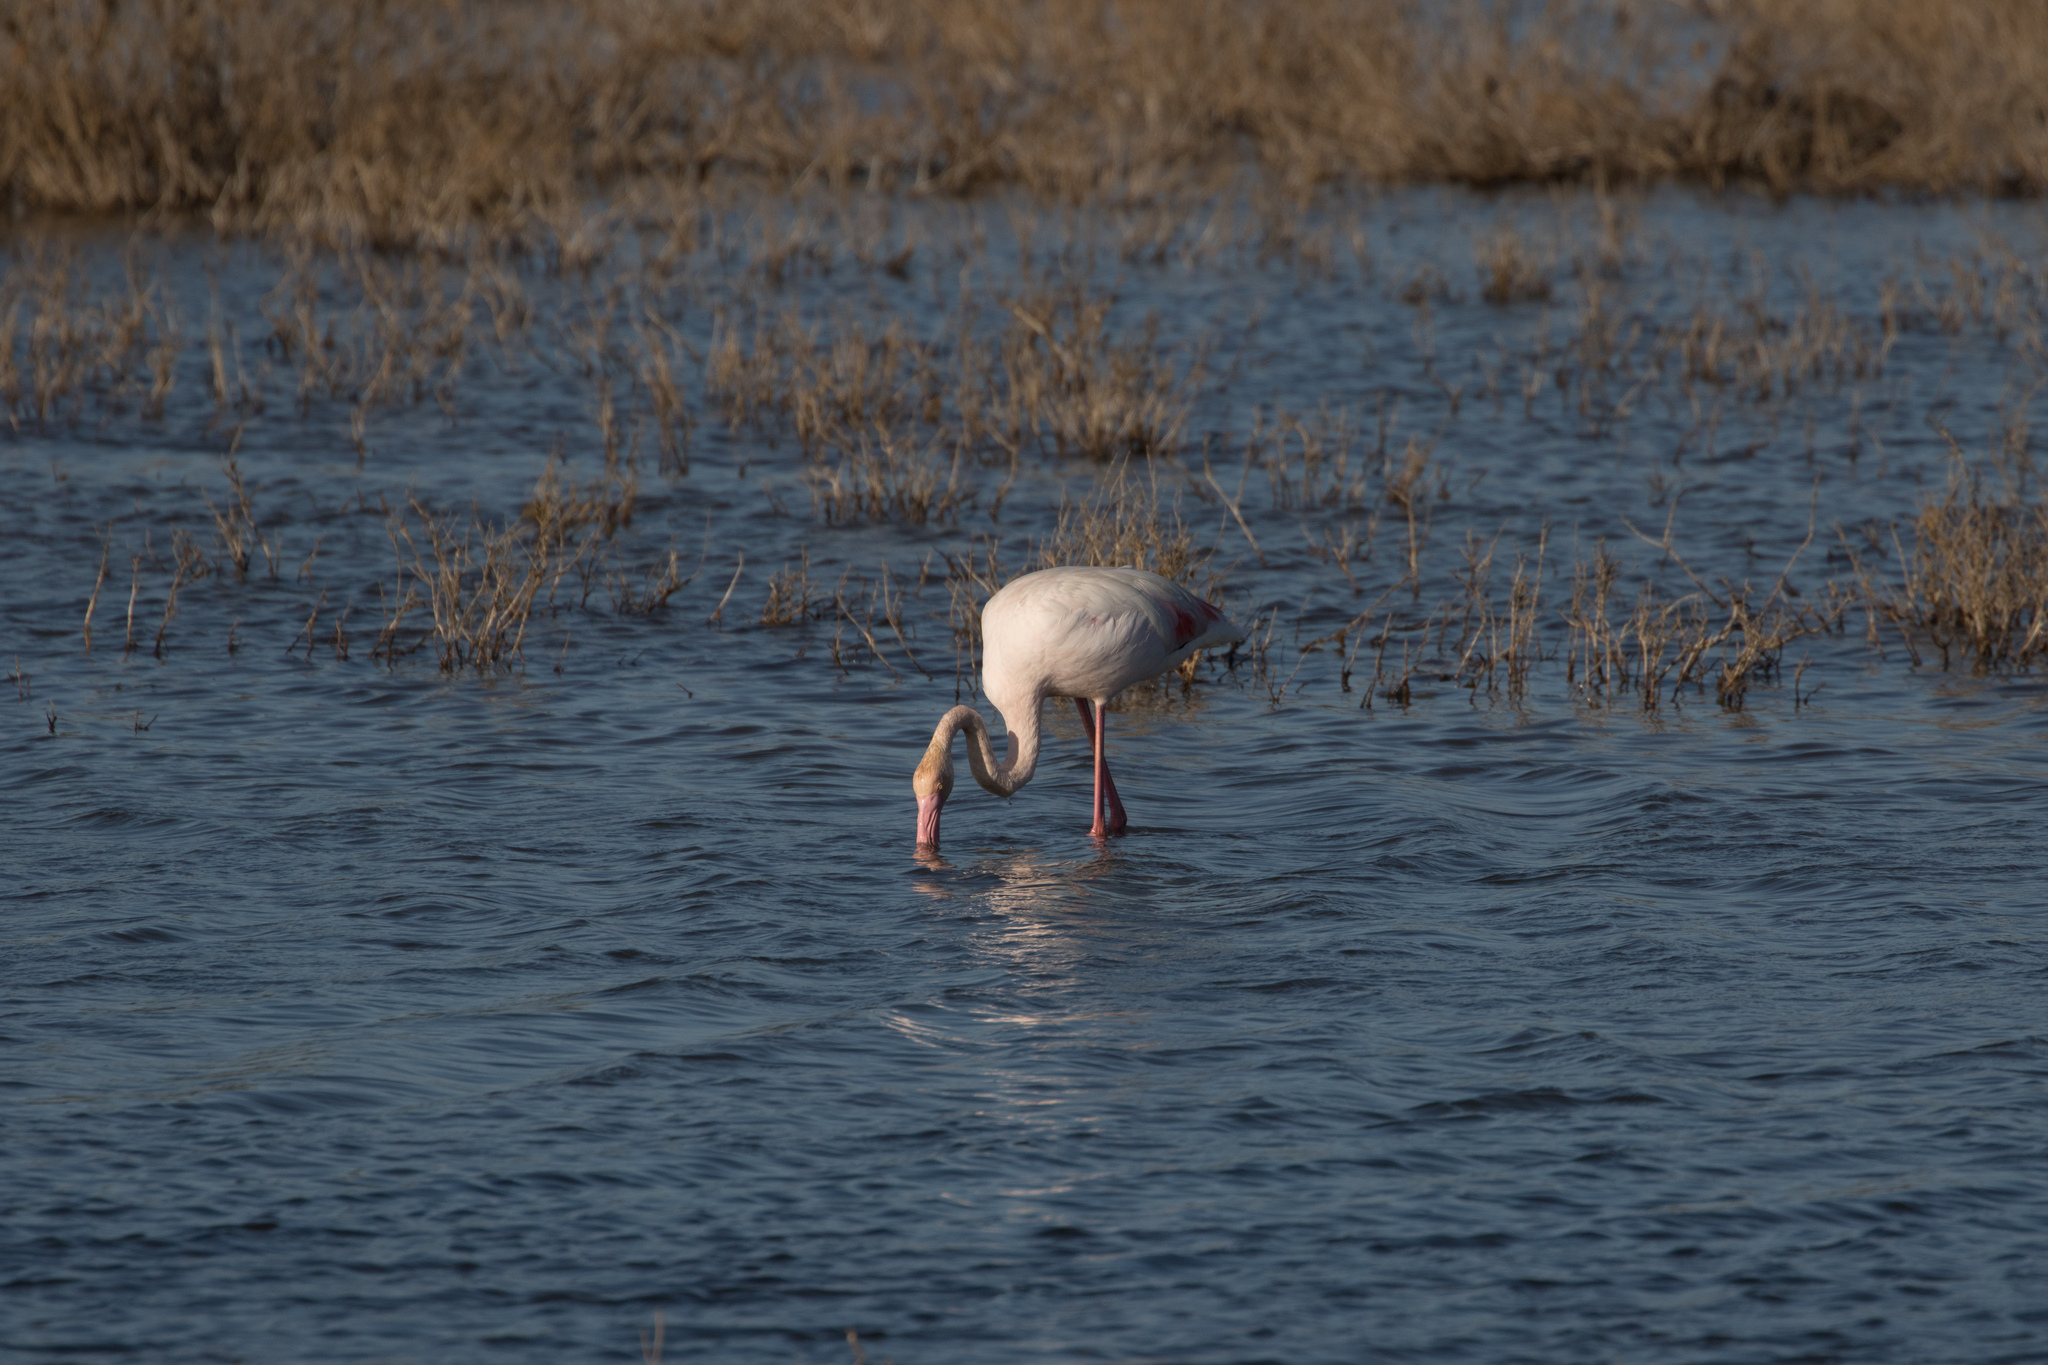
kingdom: Animalia
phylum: Chordata
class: Aves
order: Phoenicopteriformes
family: Phoenicopteridae
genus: Phoenicopterus
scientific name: Phoenicopterus roseus
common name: Greater flamingo
